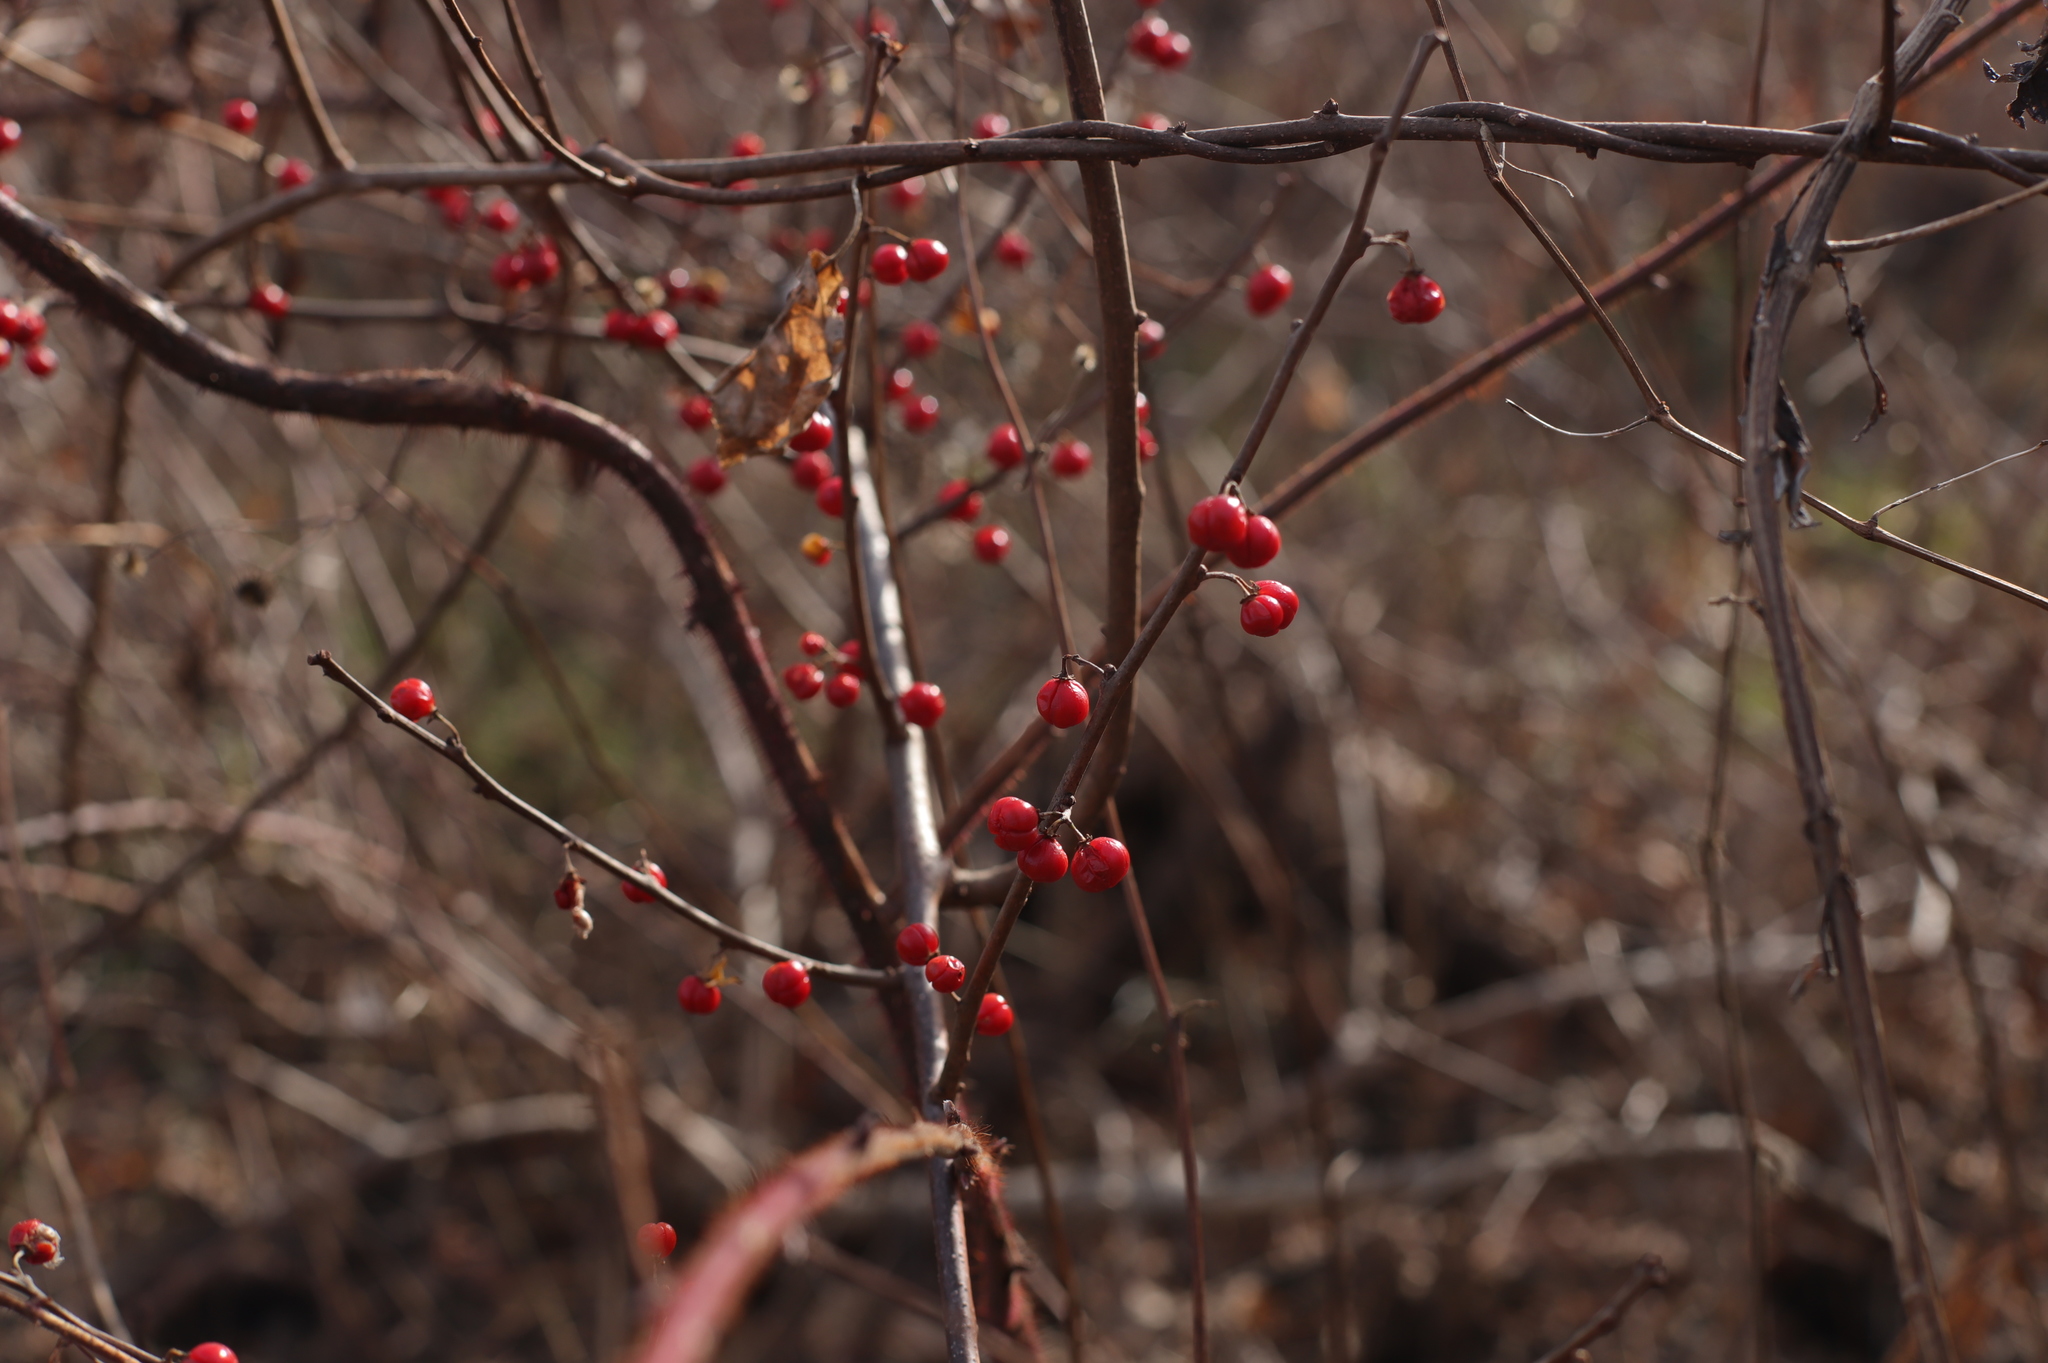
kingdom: Plantae
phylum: Tracheophyta
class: Magnoliopsida
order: Celastrales
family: Celastraceae
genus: Celastrus
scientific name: Celastrus orbiculatus
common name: Oriental bittersweet
